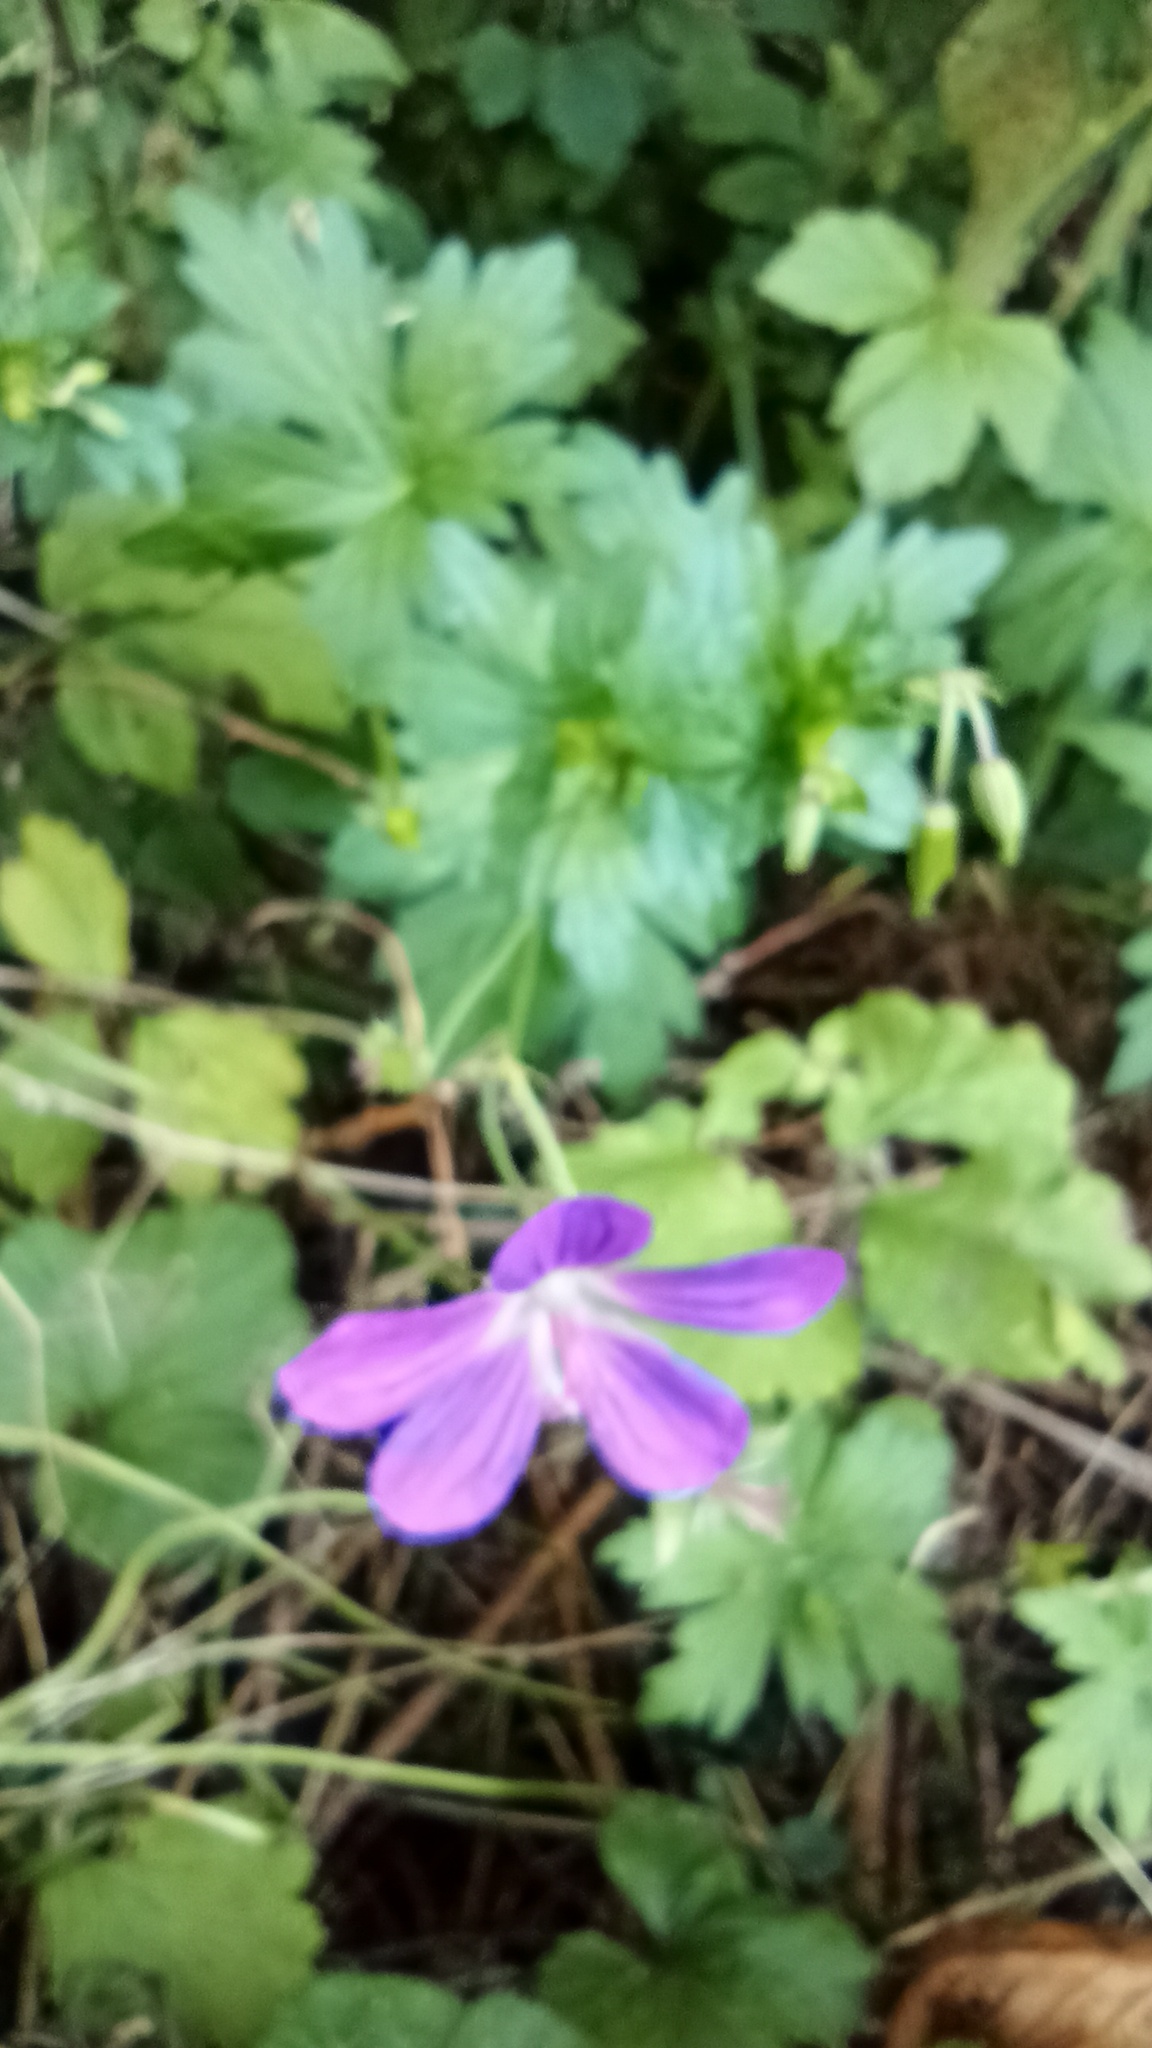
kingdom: Plantae
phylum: Tracheophyta
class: Magnoliopsida
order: Geraniales
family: Geraniaceae
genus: Geranium
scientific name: Geranium palustre
